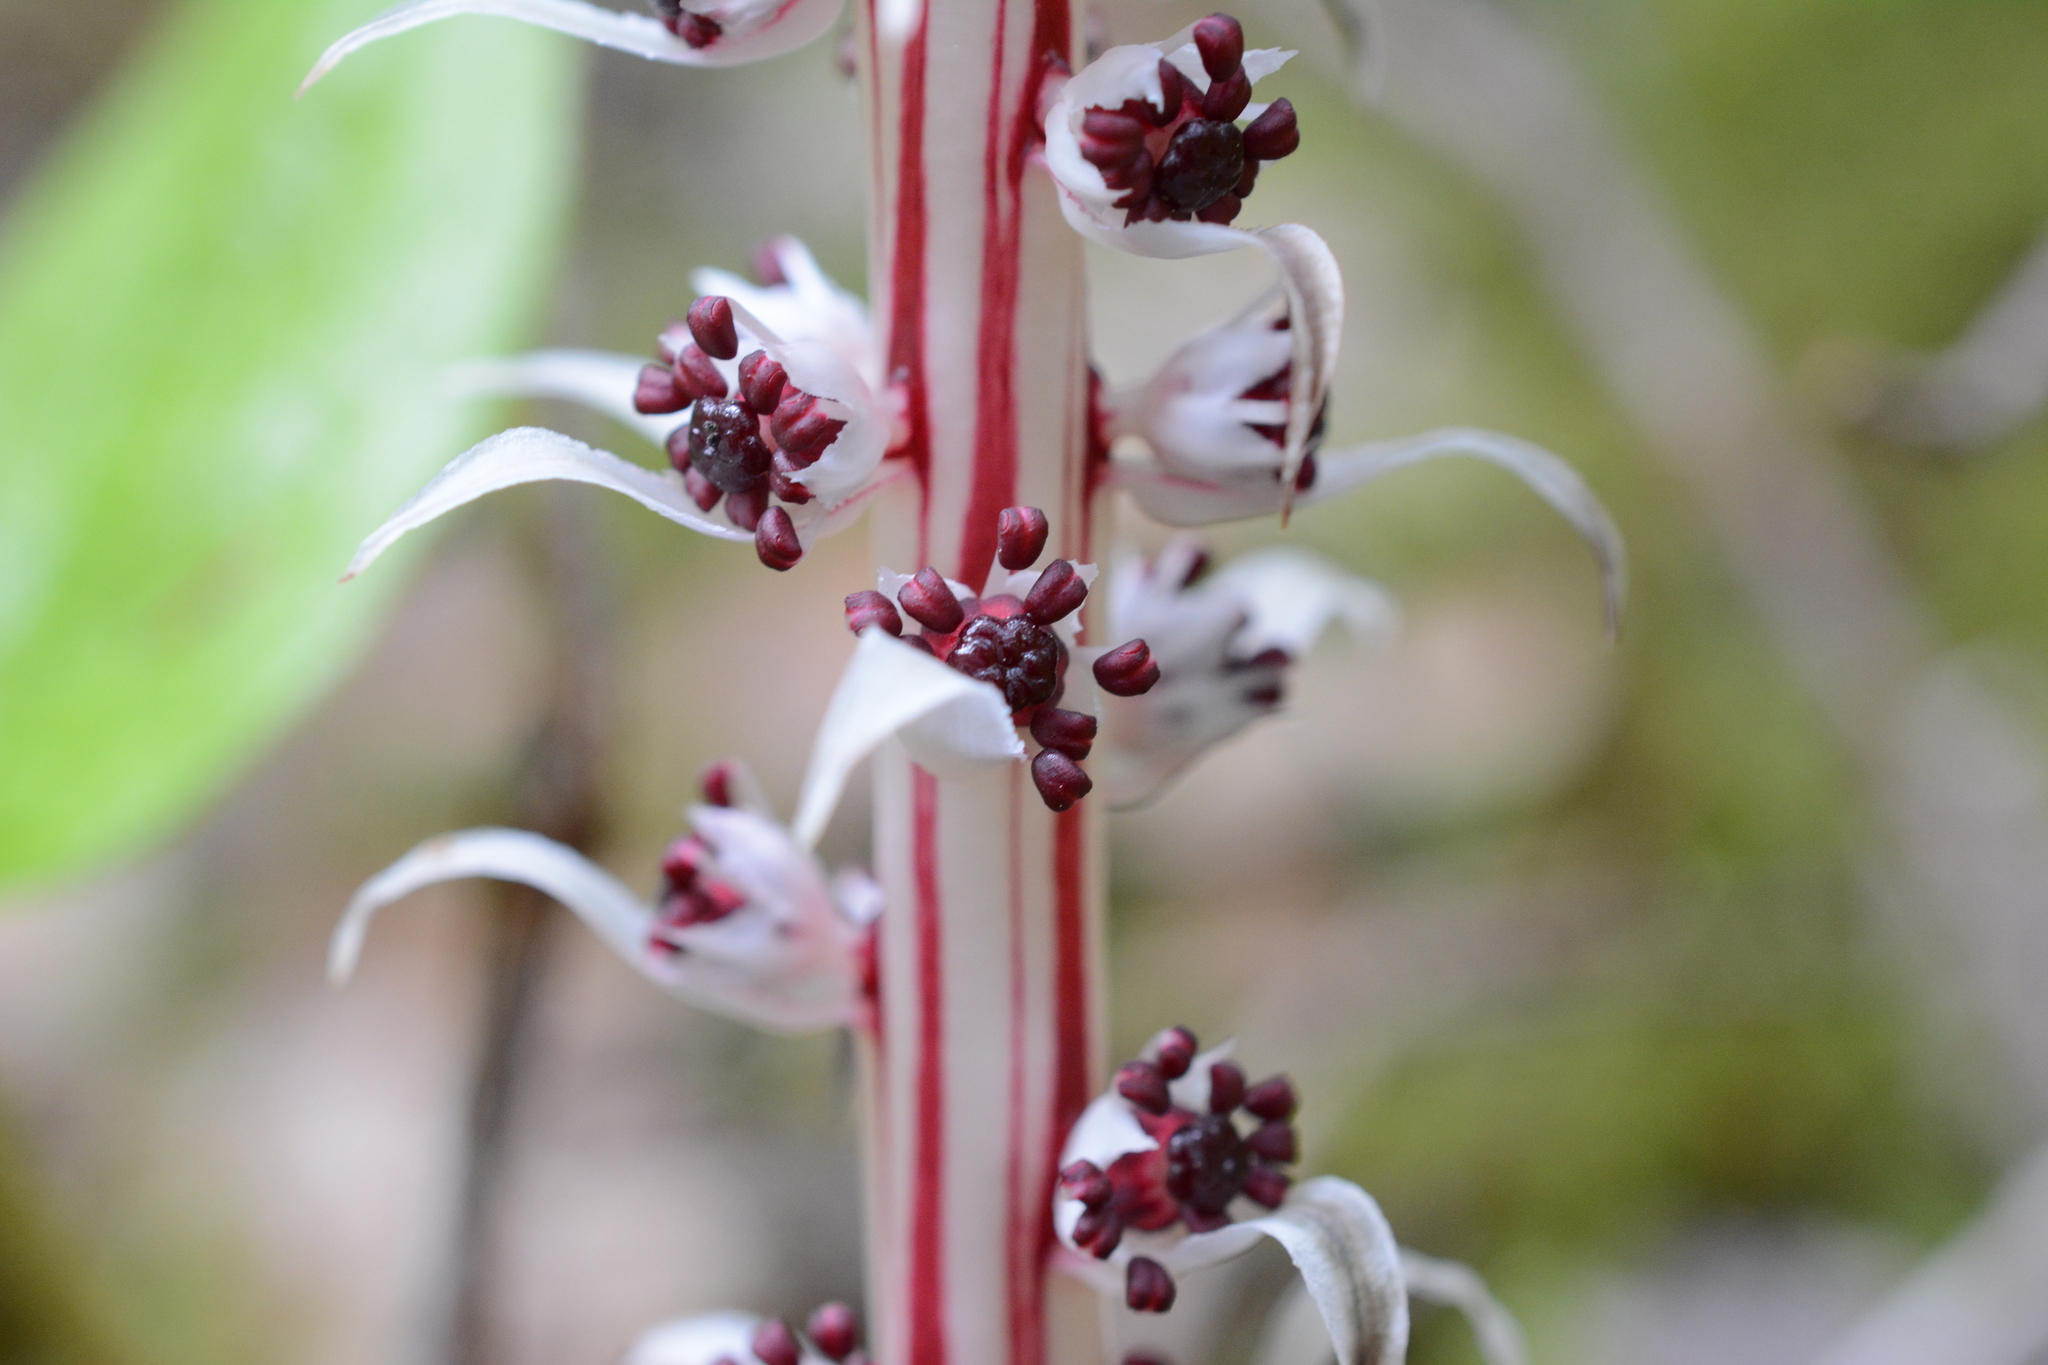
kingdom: Plantae
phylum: Tracheophyta
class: Magnoliopsida
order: Ericales
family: Ericaceae
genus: Allotropa
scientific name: Allotropa virgata
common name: Candy-striped allotropa
